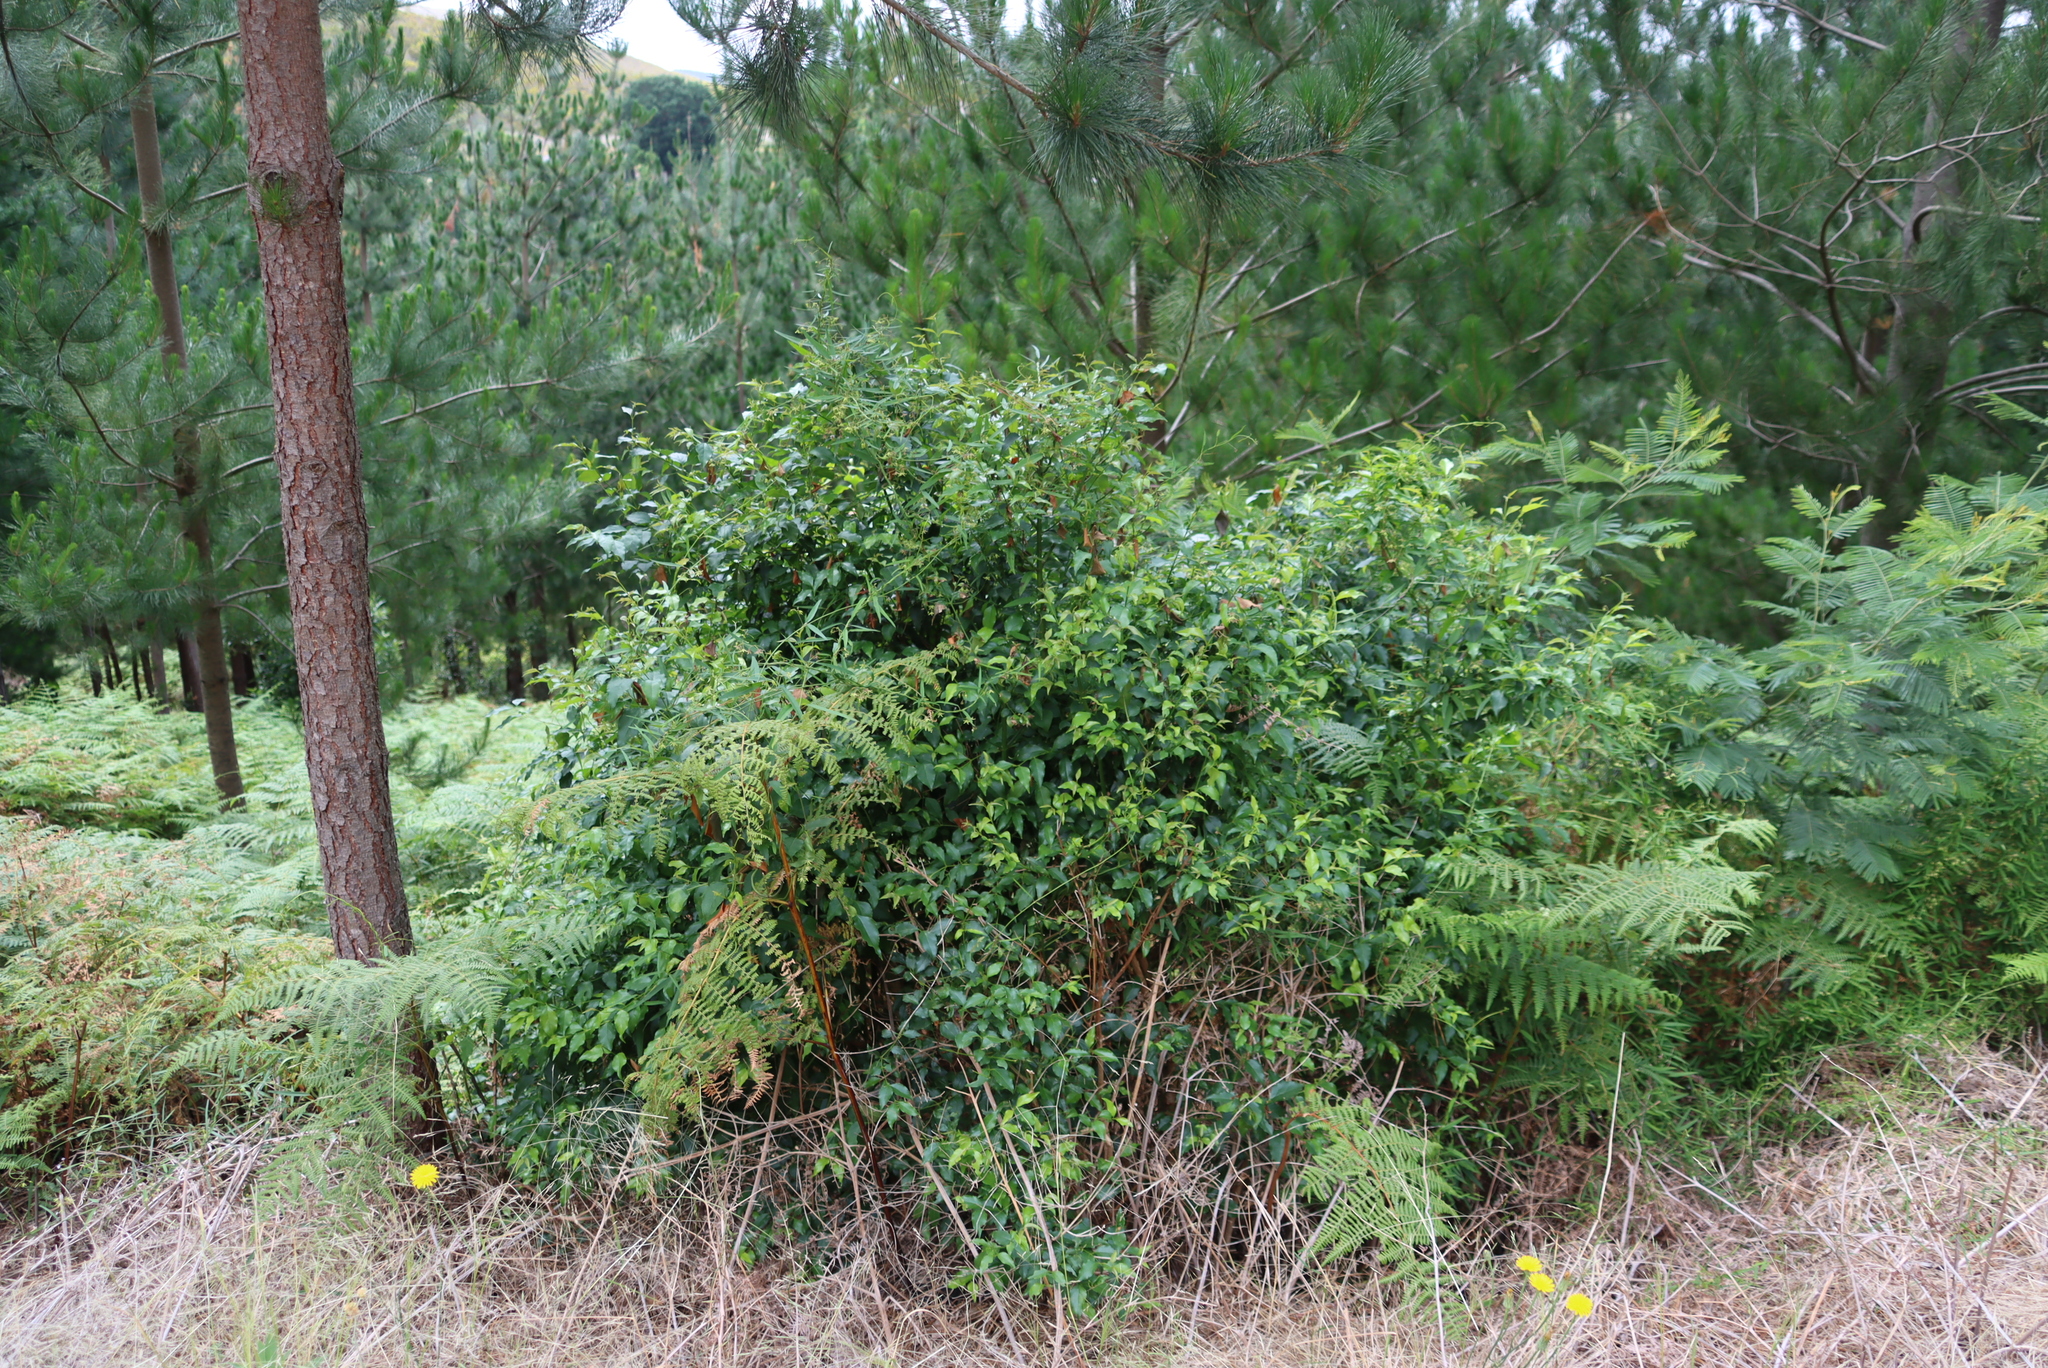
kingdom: Plantae
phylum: Tracheophyta
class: Magnoliopsida
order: Lamiales
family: Stilbaceae
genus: Halleria
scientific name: Halleria lucida
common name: Tree fuschia
